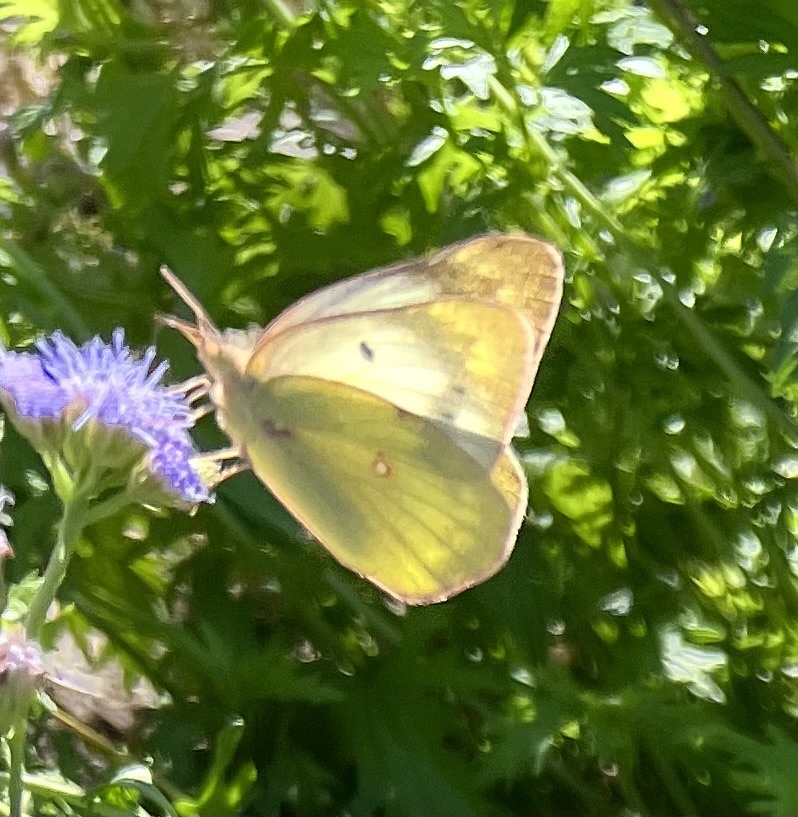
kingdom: Animalia
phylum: Arthropoda
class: Insecta
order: Lepidoptera
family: Pieridae
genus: Colias
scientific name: Colias eurytheme
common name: Alfalfa butterfly
